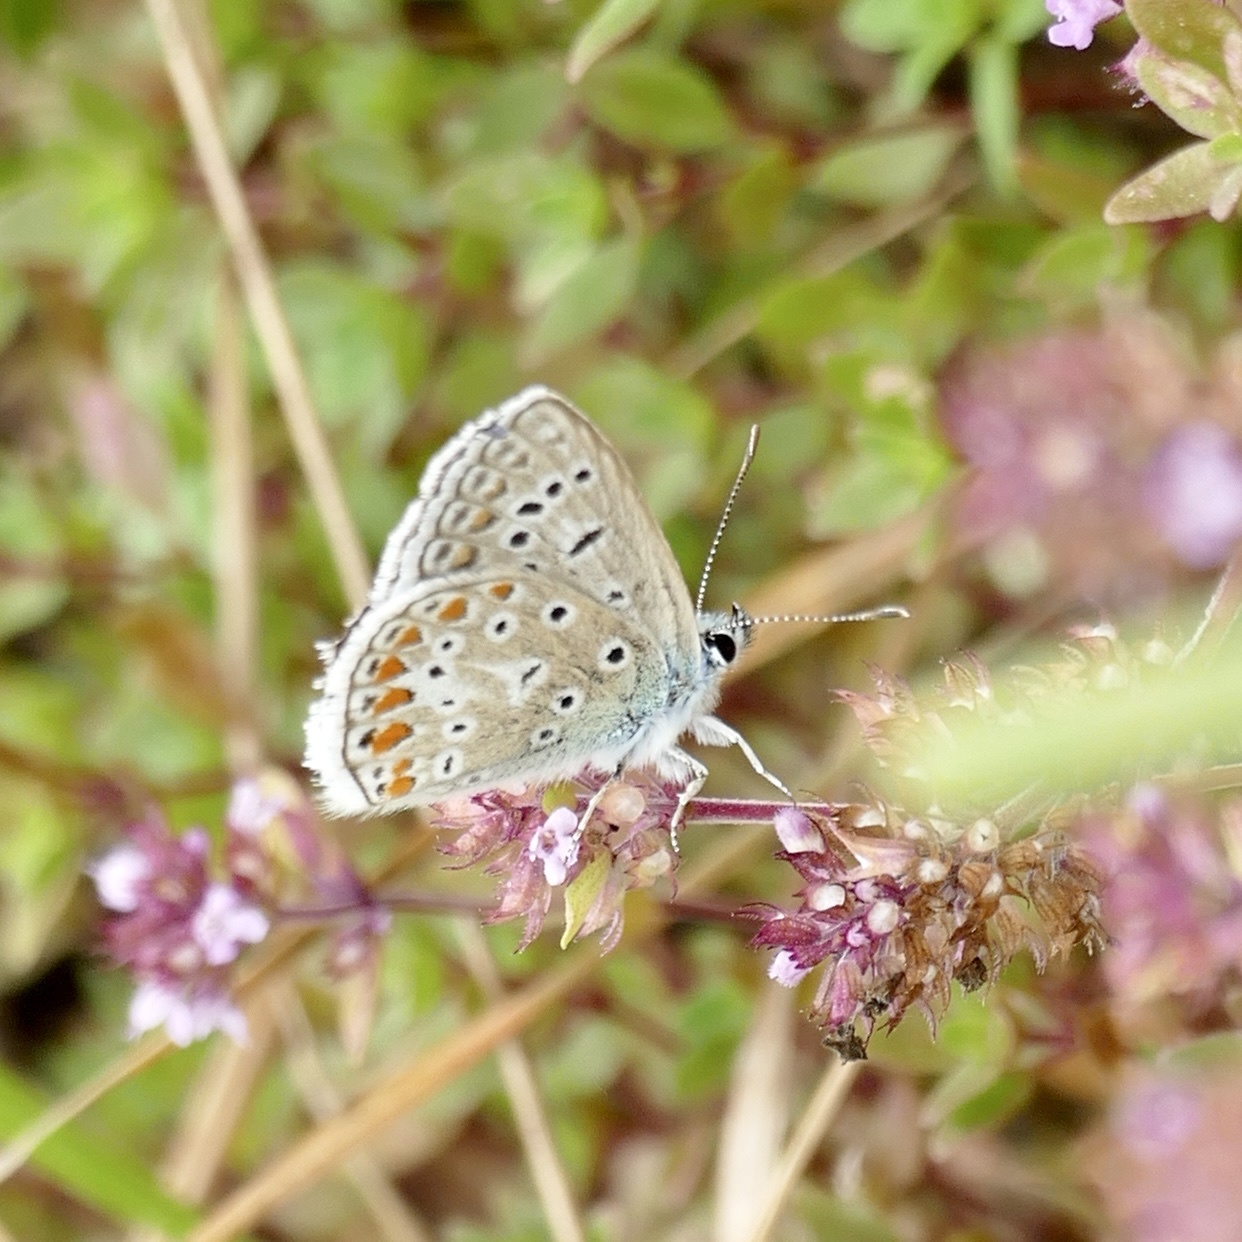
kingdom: Animalia
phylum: Arthropoda
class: Insecta
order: Lepidoptera
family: Lycaenidae
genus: Polyommatus
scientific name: Polyommatus icarus
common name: Common blue
